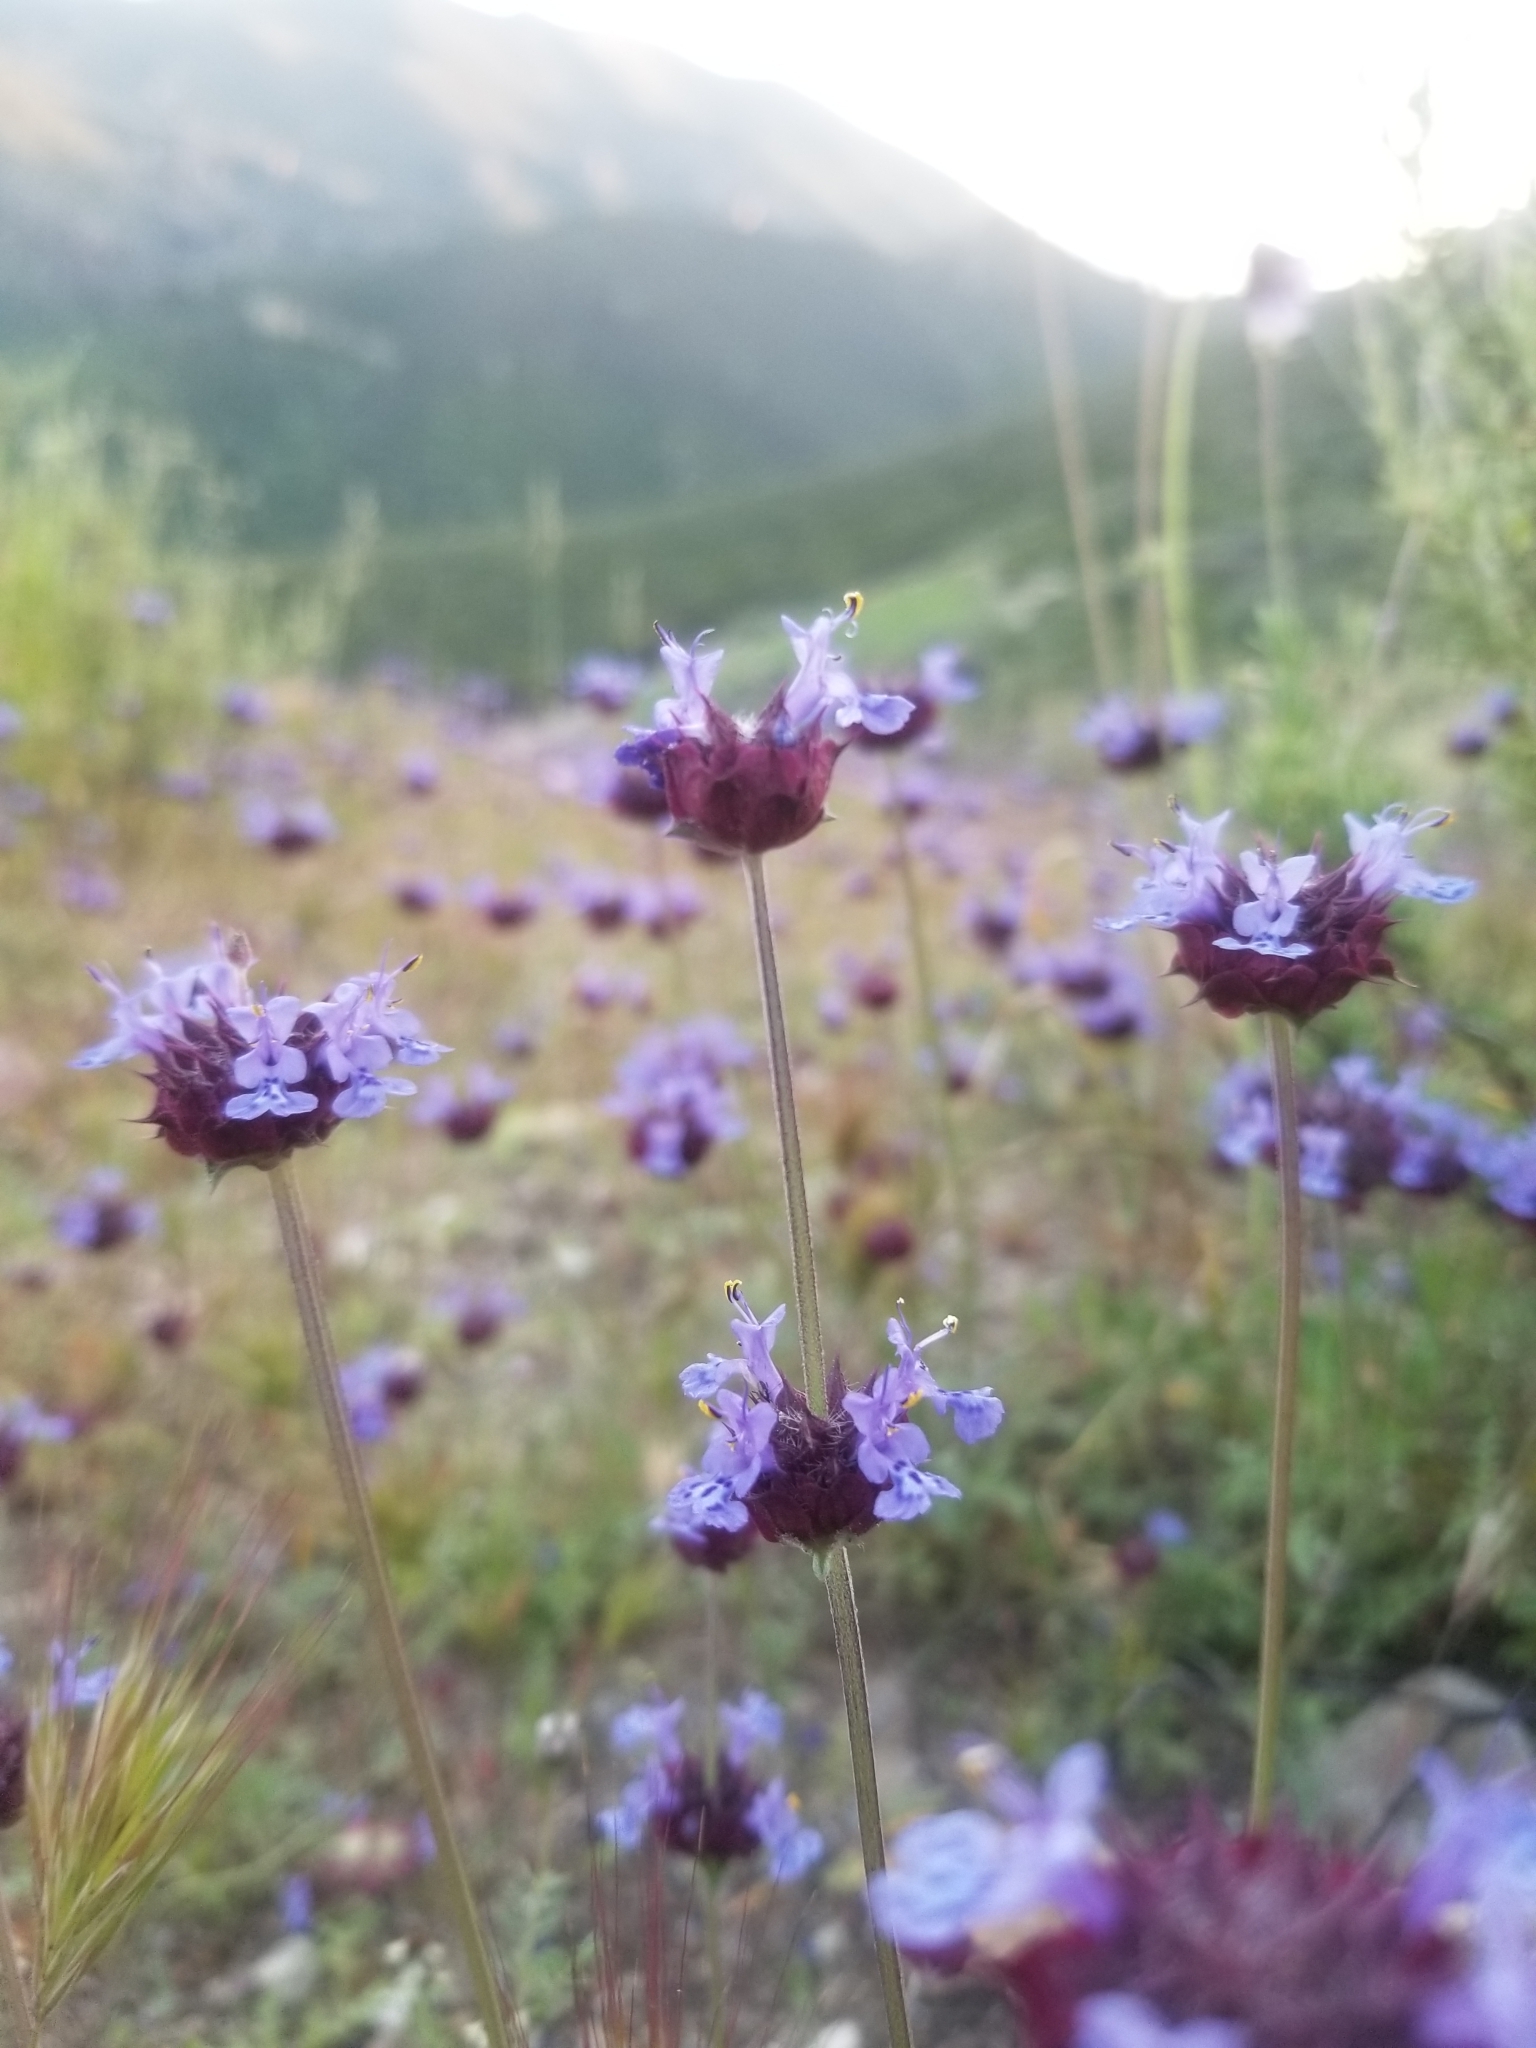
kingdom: Plantae
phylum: Tracheophyta
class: Magnoliopsida
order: Lamiales
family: Lamiaceae
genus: Salvia
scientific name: Salvia columbariae
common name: Chia
